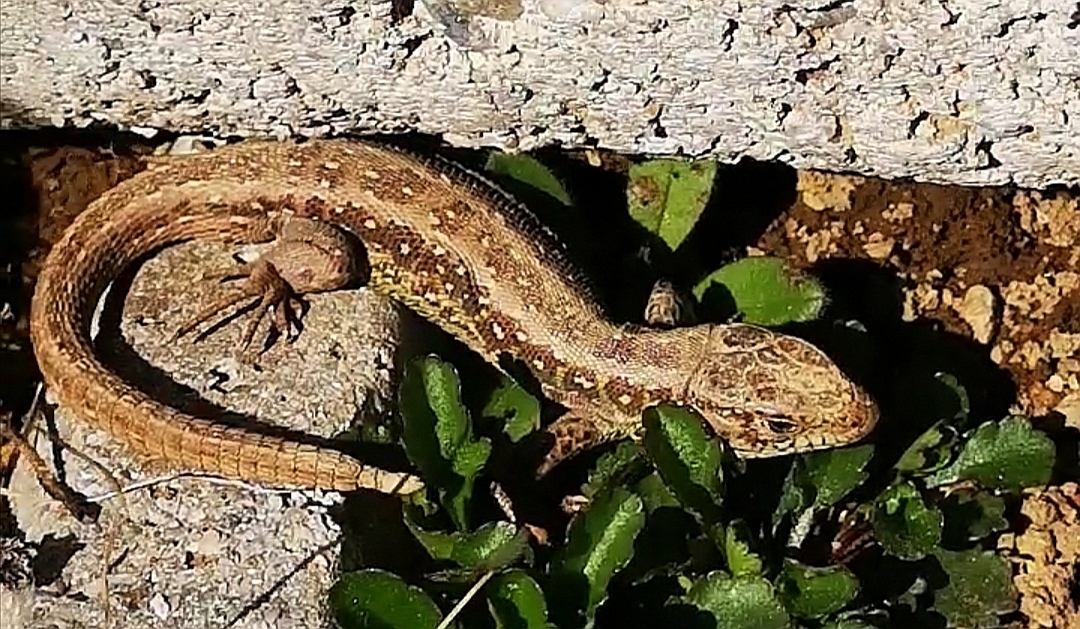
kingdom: Animalia
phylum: Chordata
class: Squamata
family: Lacertidae
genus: Lacerta
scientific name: Lacerta agilis
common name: Sand lizard
